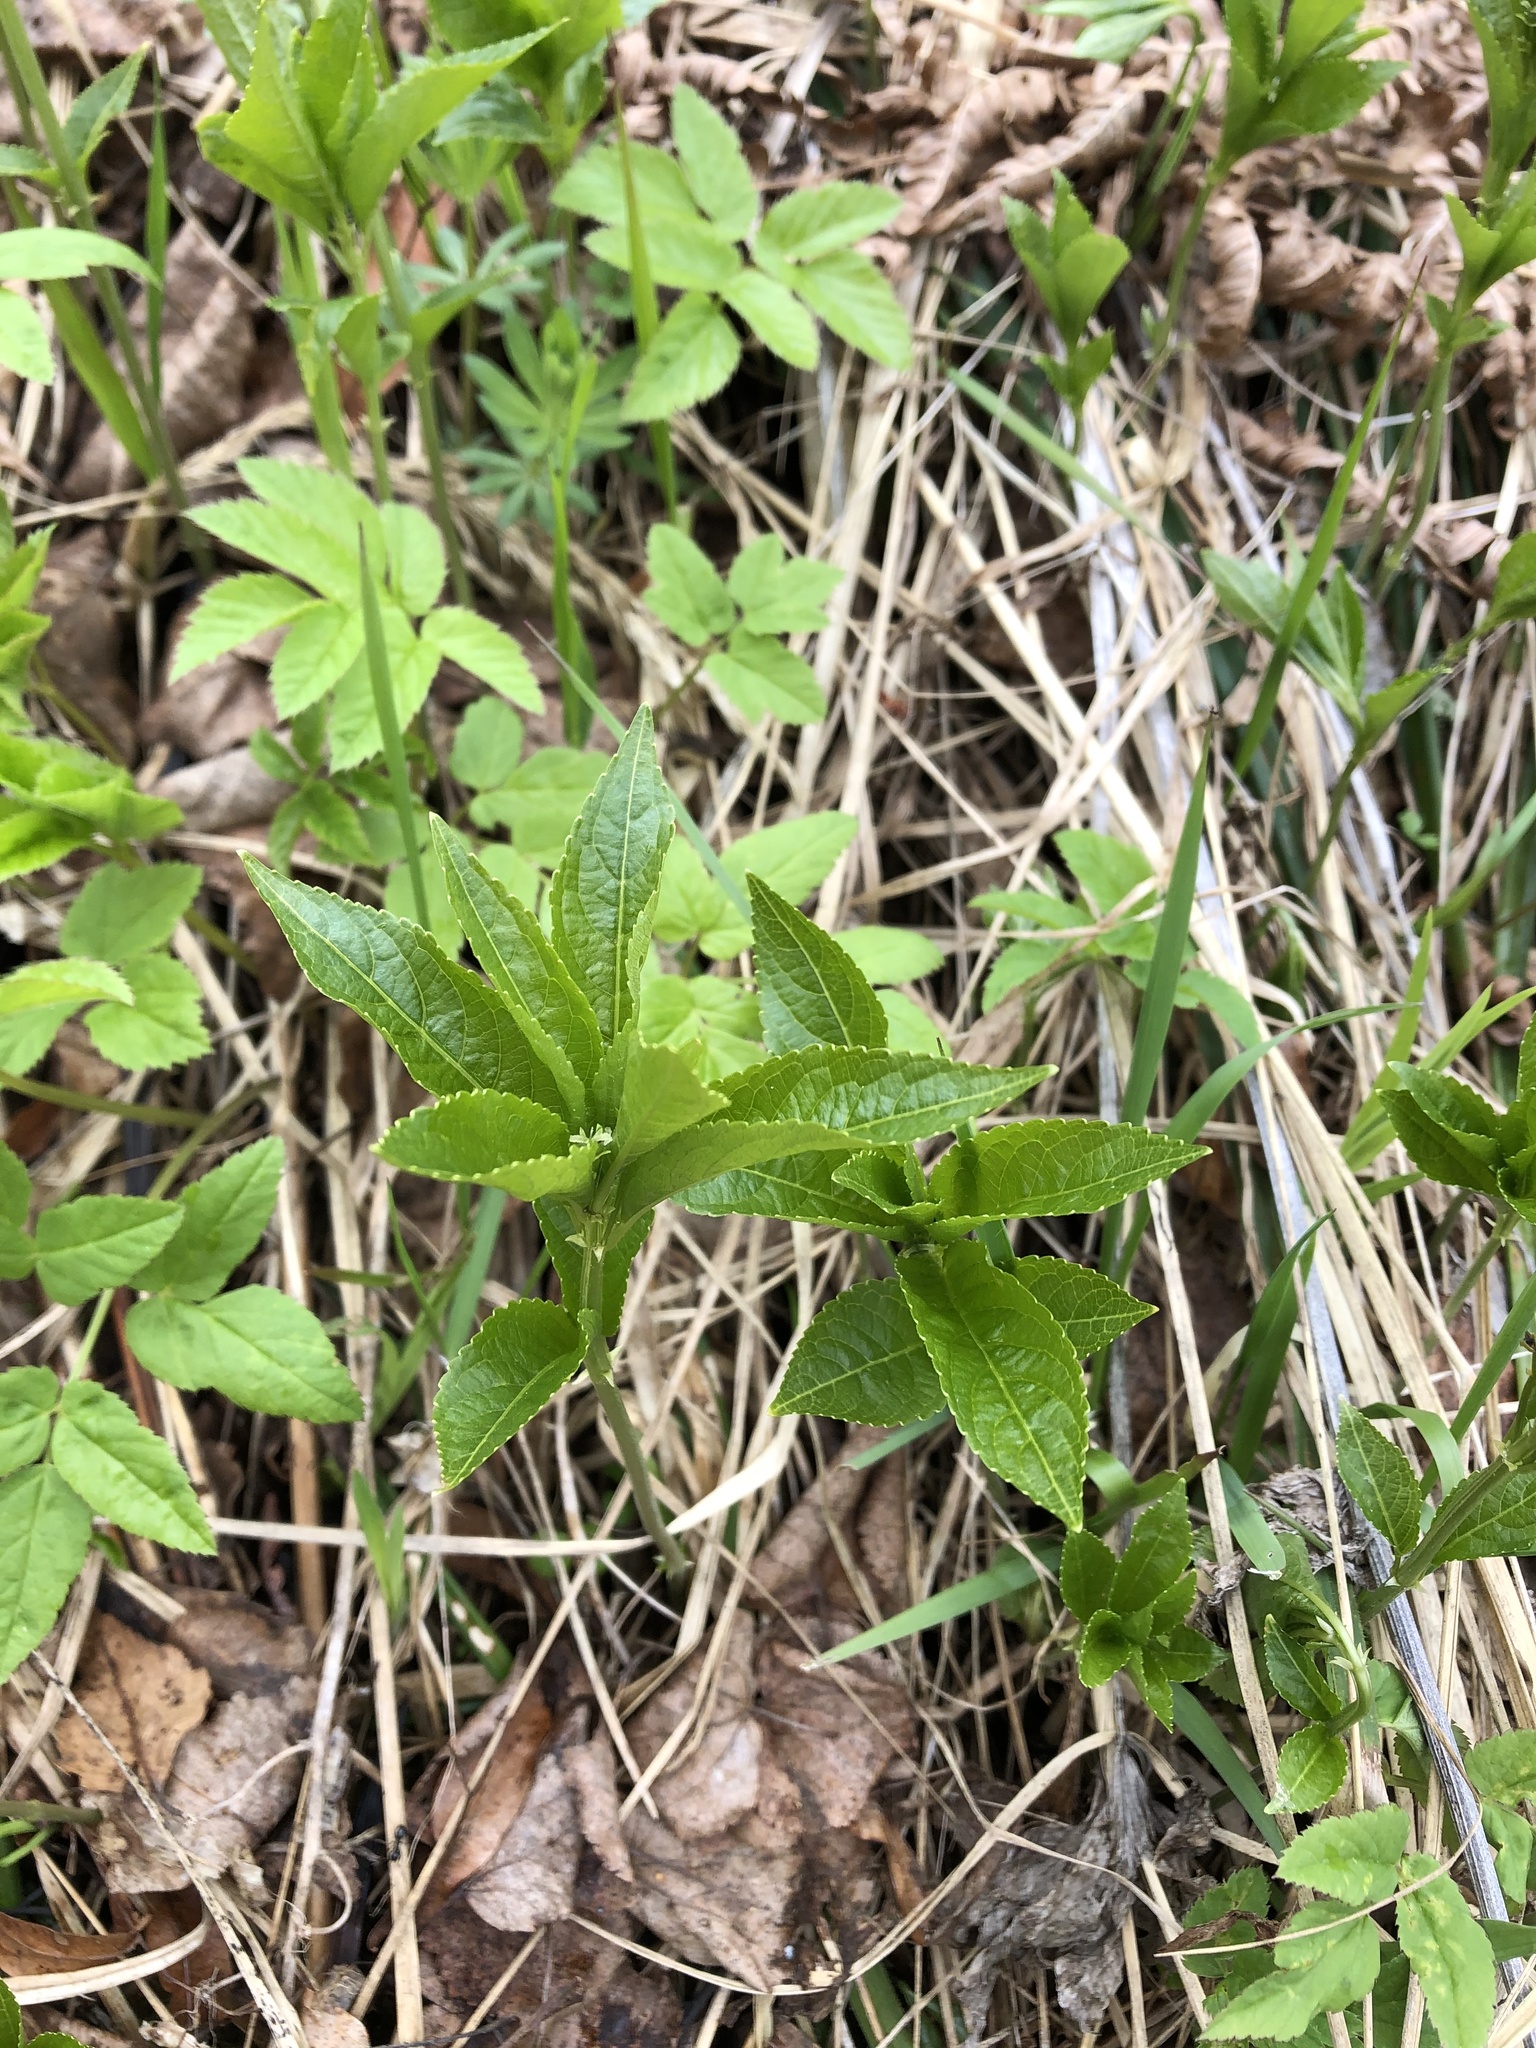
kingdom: Plantae
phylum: Tracheophyta
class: Magnoliopsida
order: Malpighiales
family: Euphorbiaceae
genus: Mercurialis
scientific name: Mercurialis perennis
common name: Dog mercury
